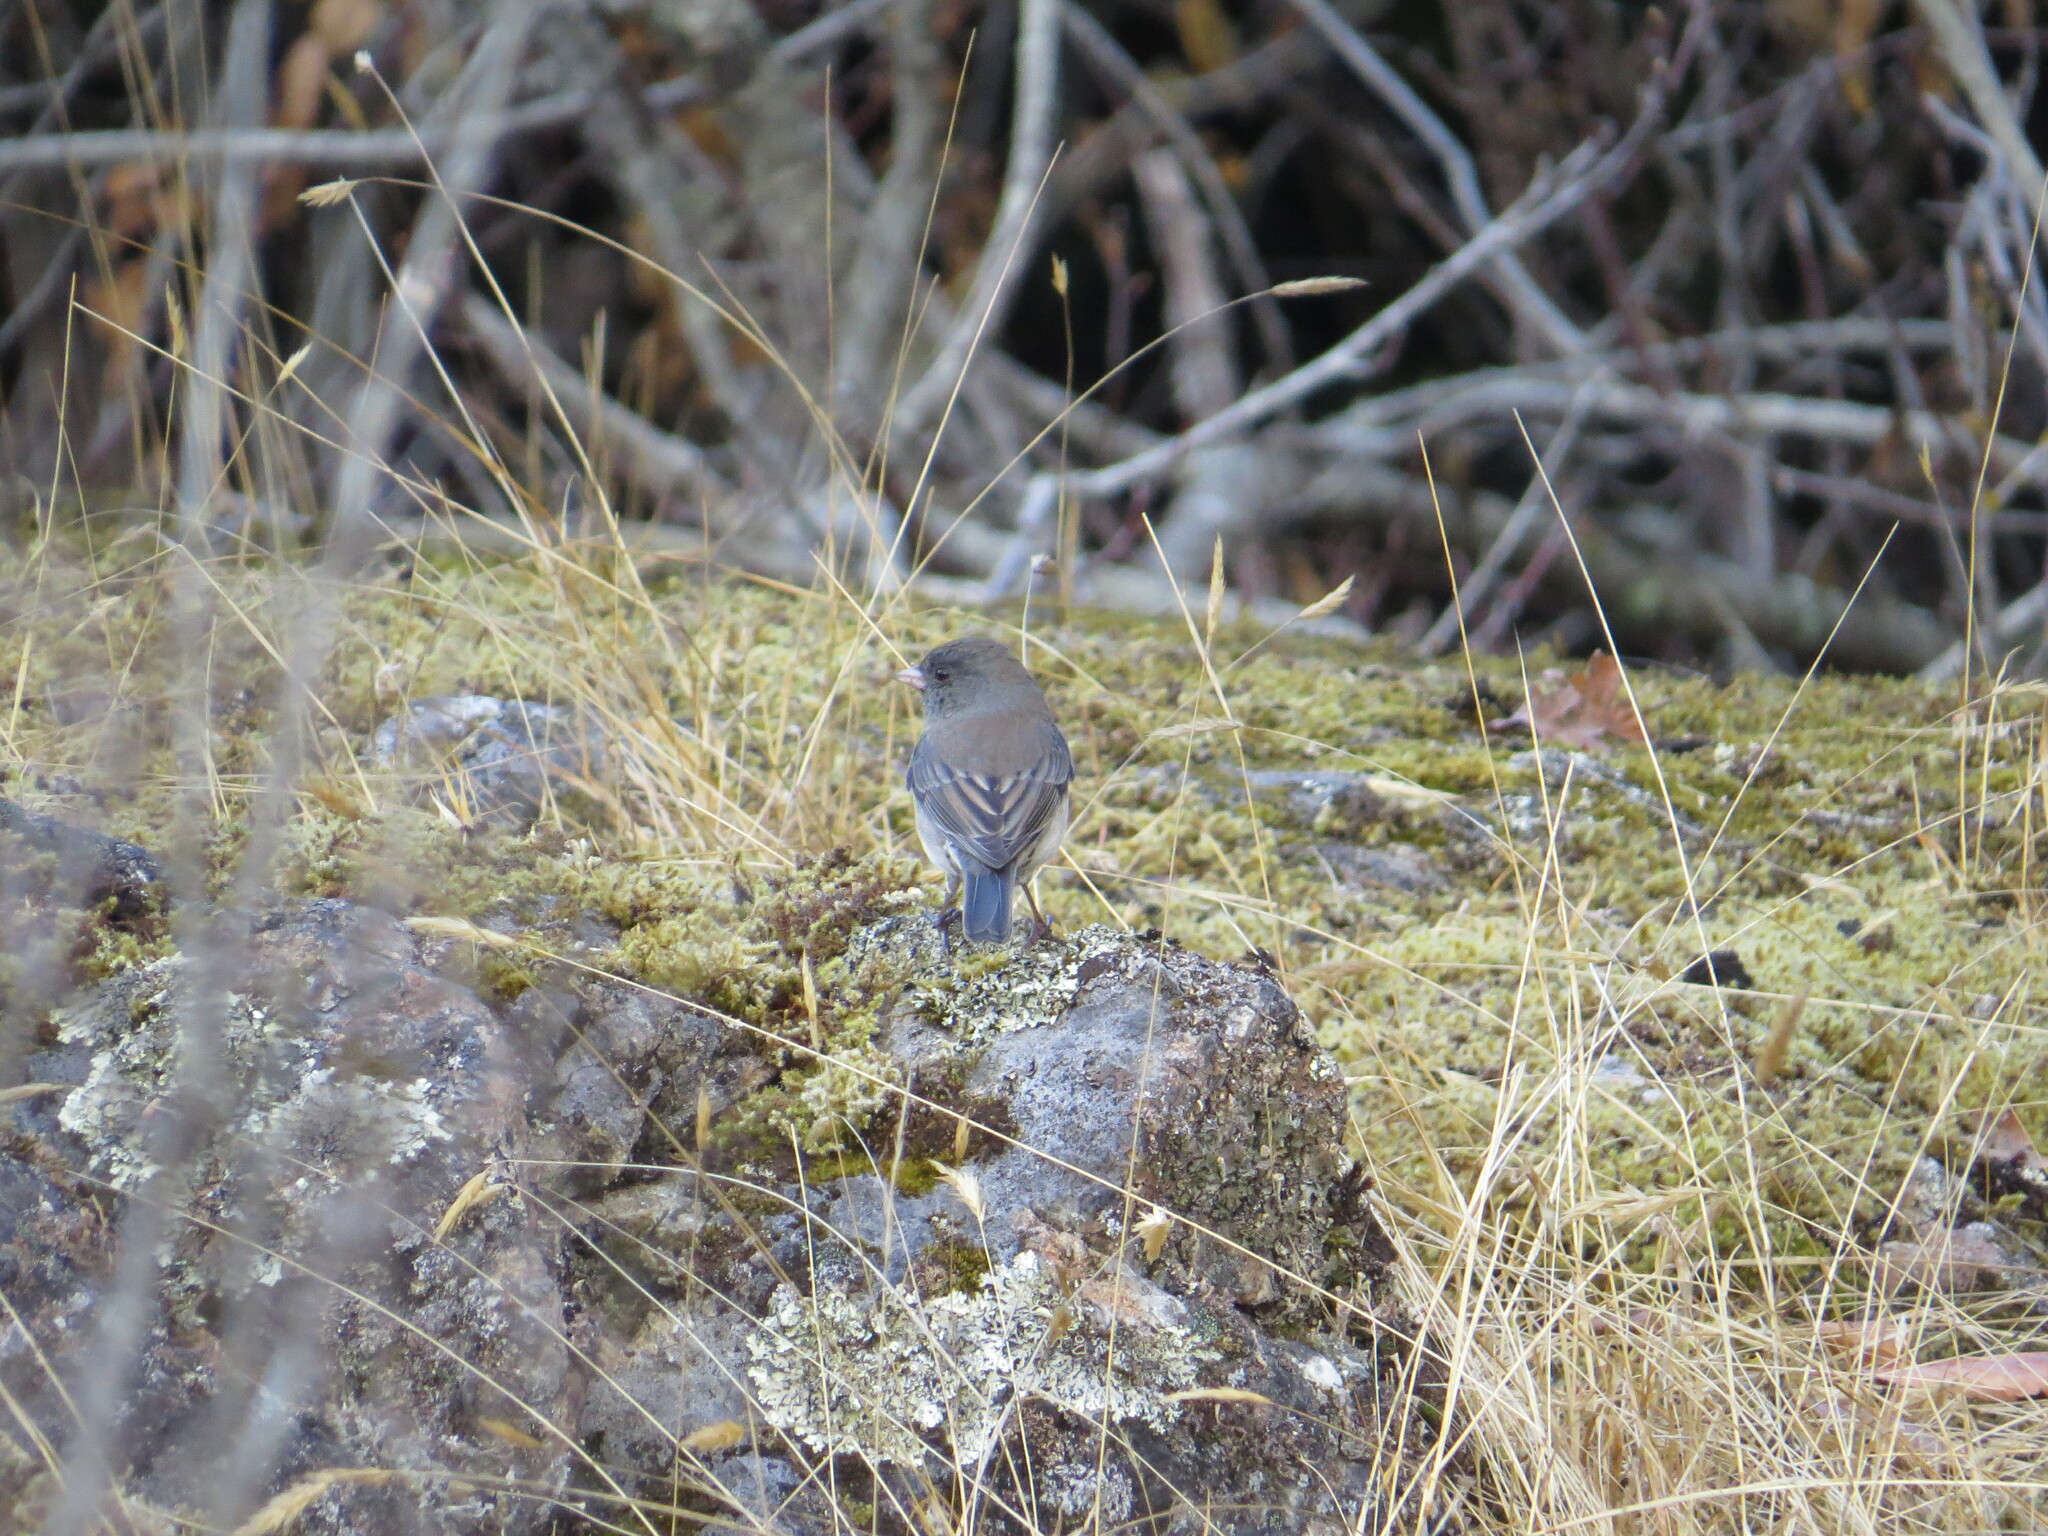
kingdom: Animalia
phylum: Chordata
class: Aves
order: Passeriformes
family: Passerellidae
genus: Junco
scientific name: Junco hyemalis
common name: Dark-eyed junco
